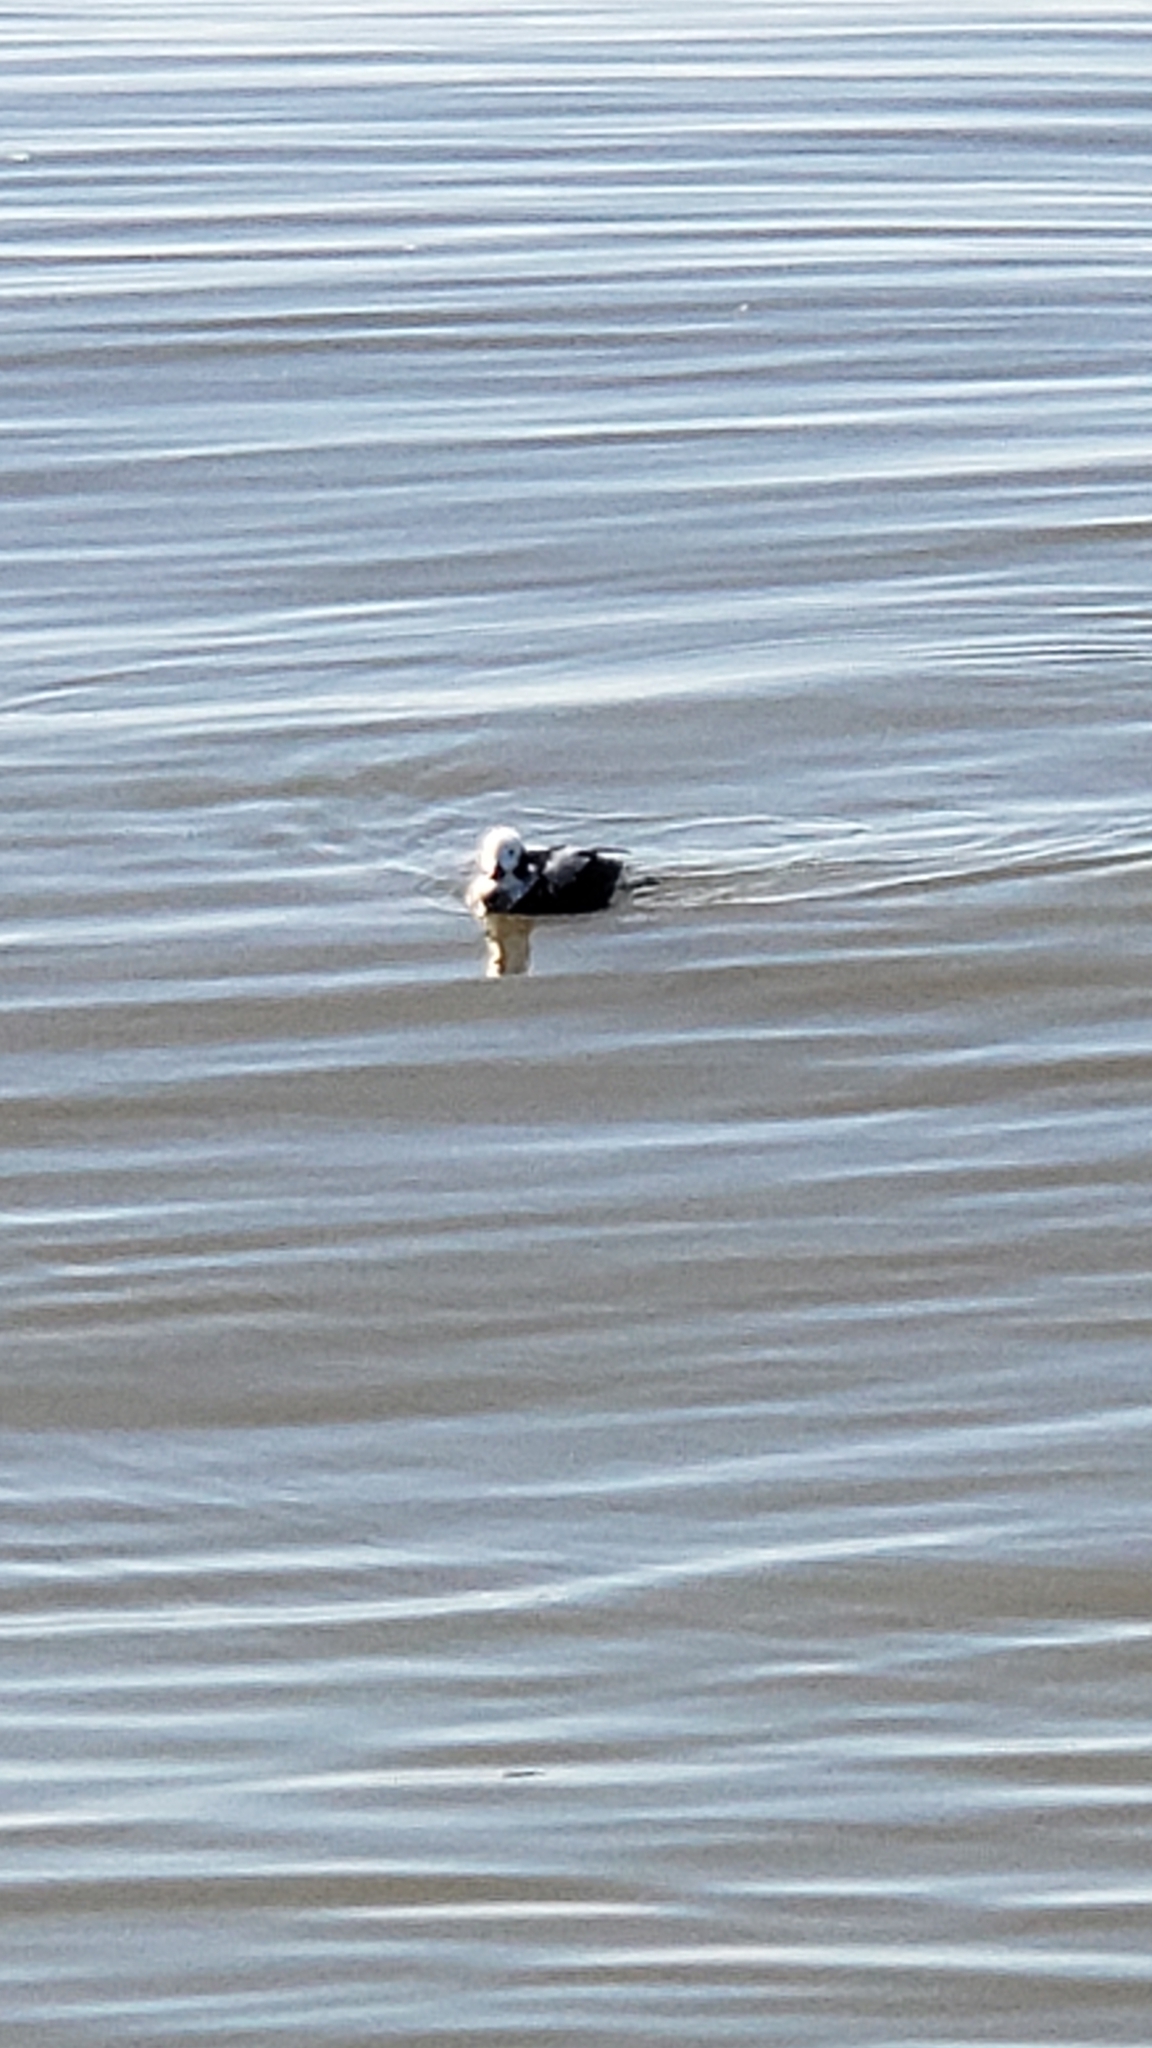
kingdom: Animalia
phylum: Chordata
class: Aves
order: Anseriformes
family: Anatidae
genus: Clangula
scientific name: Clangula hyemalis
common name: Long-tailed duck
